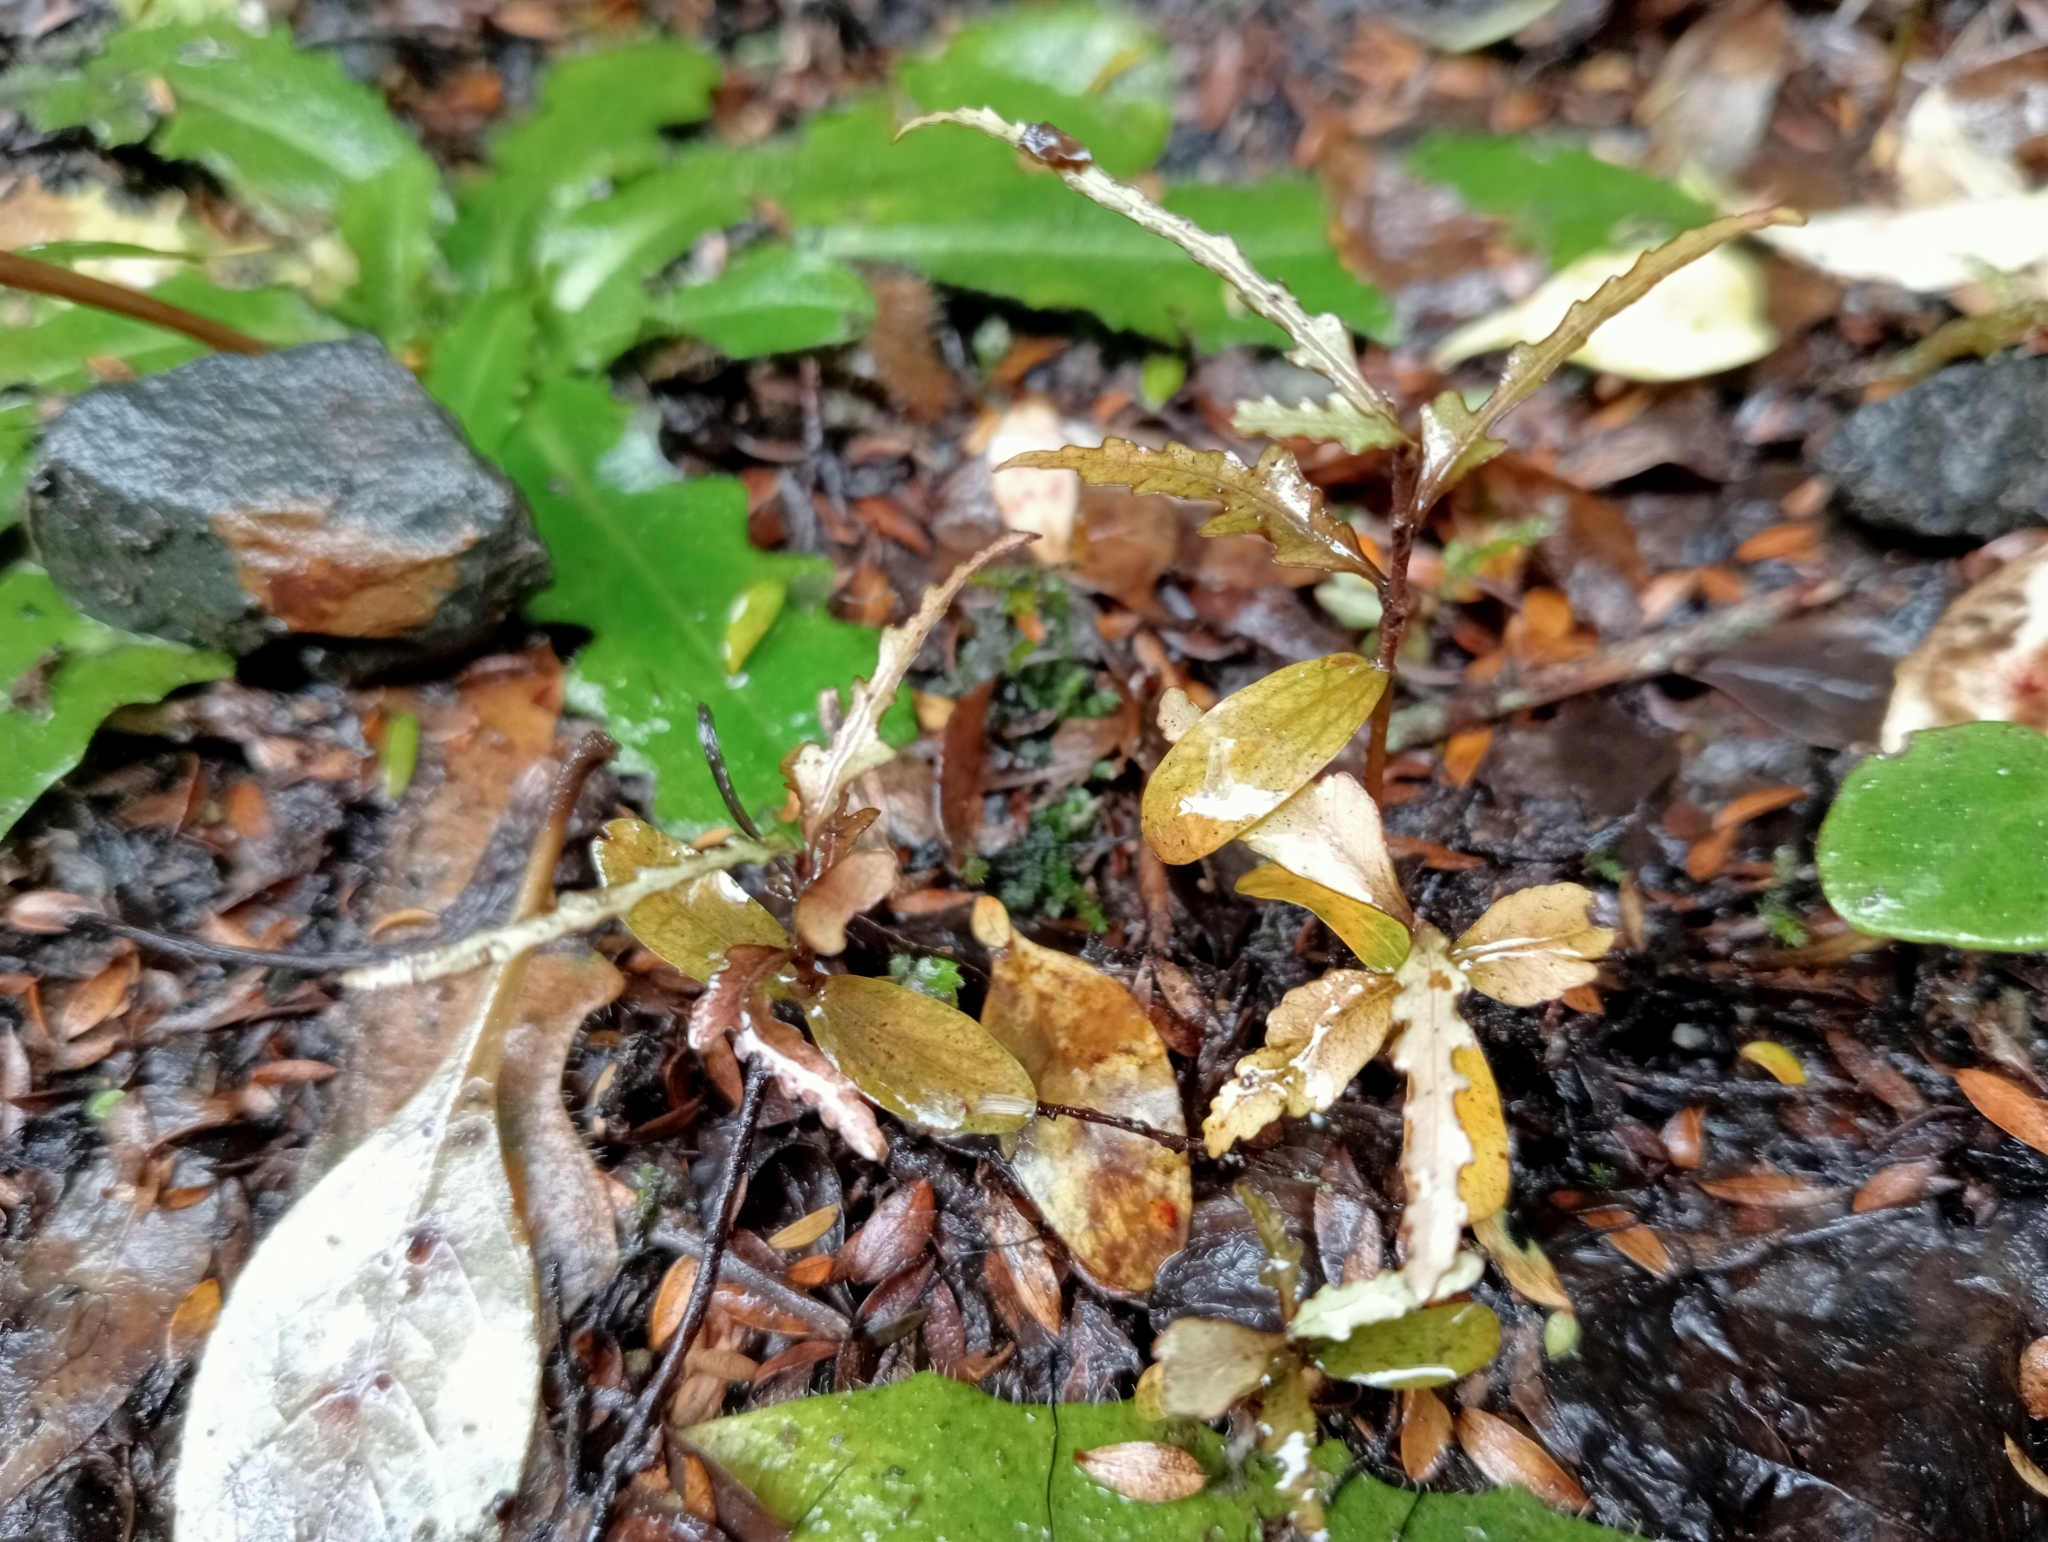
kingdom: Plantae
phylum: Tracheophyta
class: Magnoliopsida
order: Oxalidales
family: Elaeocarpaceae
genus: Elaeocarpus
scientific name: Elaeocarpus hookerianus
